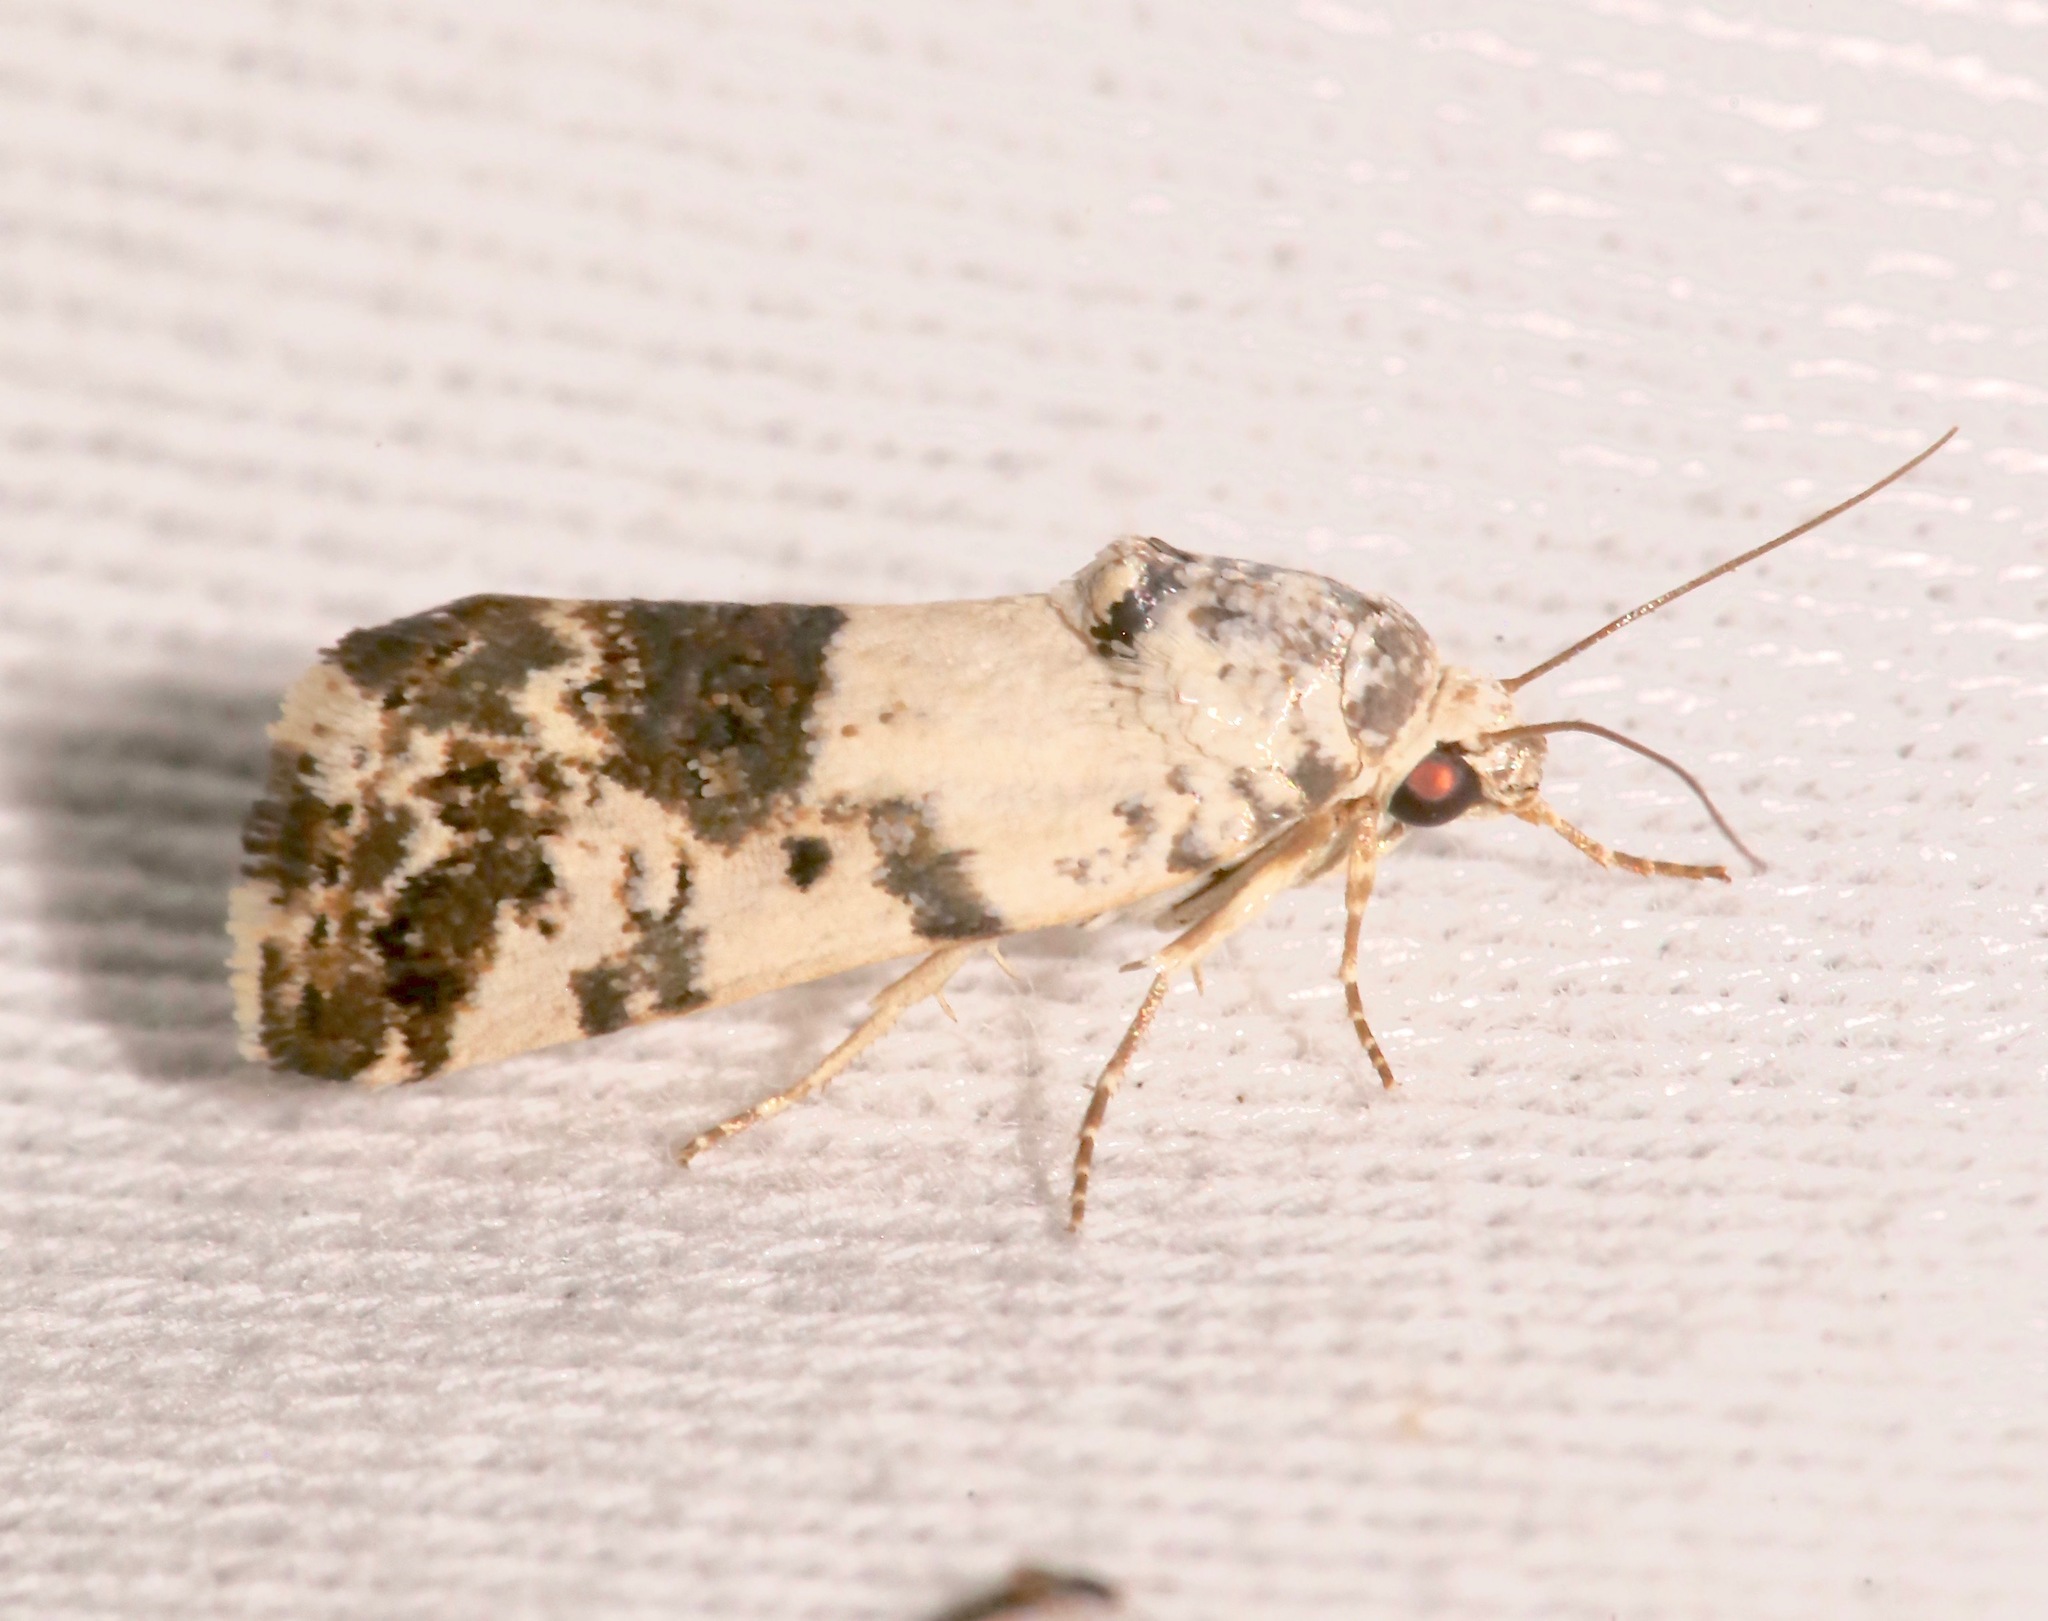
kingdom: Animalia
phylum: Arthropoda
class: Insecta
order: Lepidoptera
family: Noctuidae
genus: Acontia
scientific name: Acontia Tarache tenuicula
